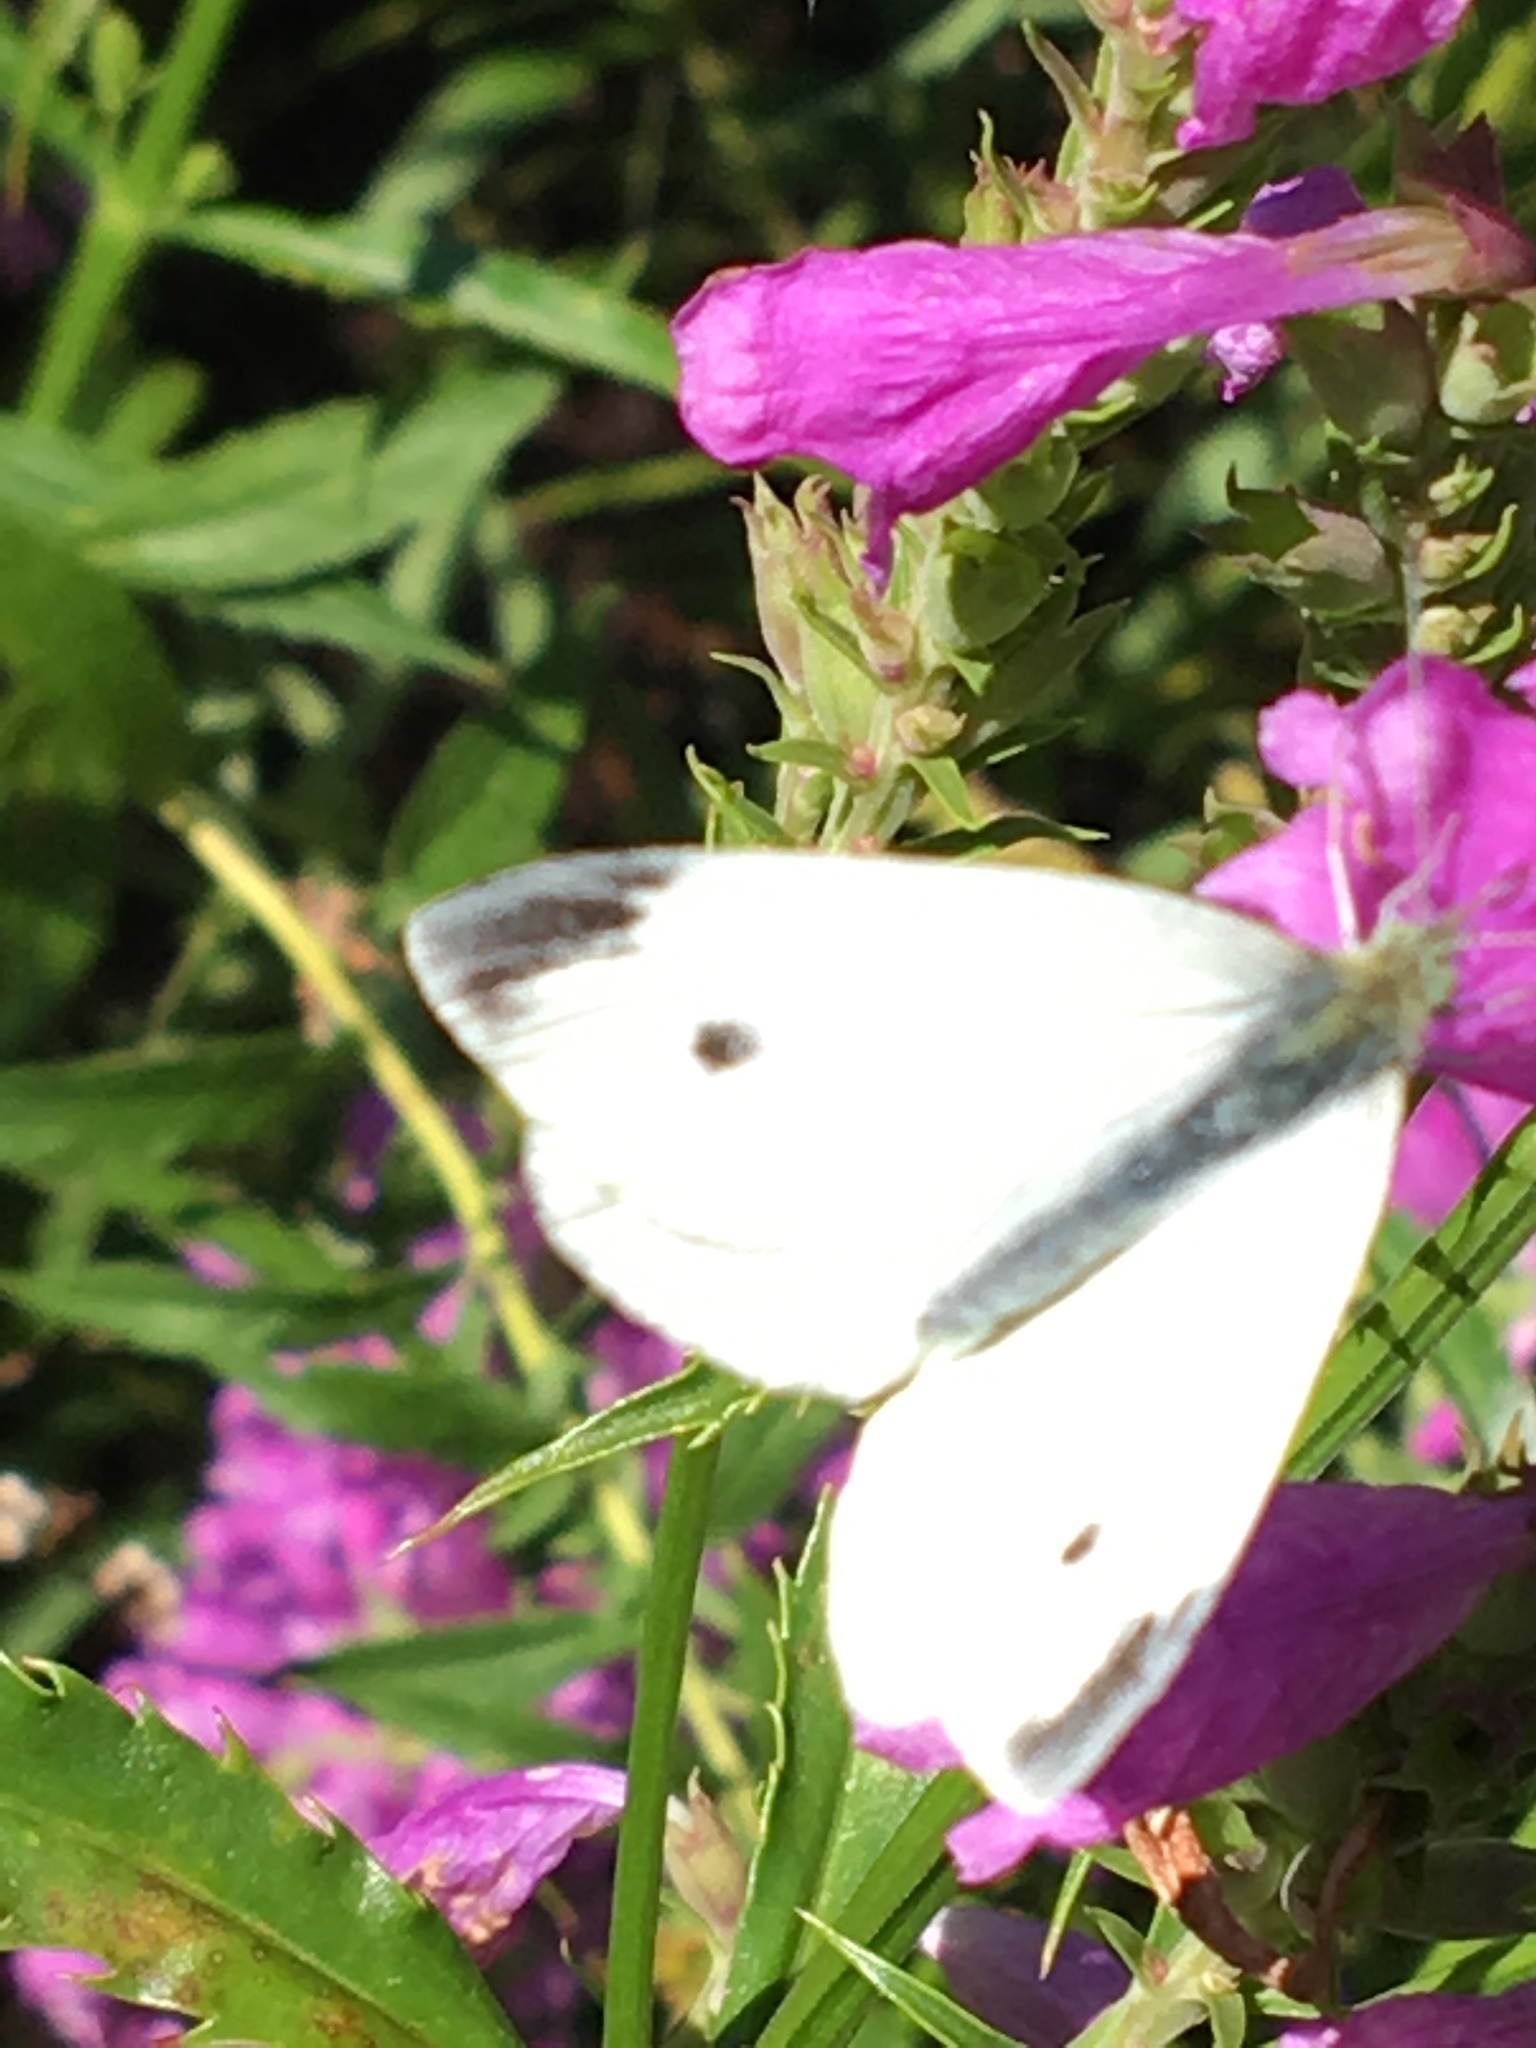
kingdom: Animalia
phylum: Arthropoda
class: Insecta
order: Lepidoptera
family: Pieridae
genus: Pieris
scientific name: Pieris rapae
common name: Small white
